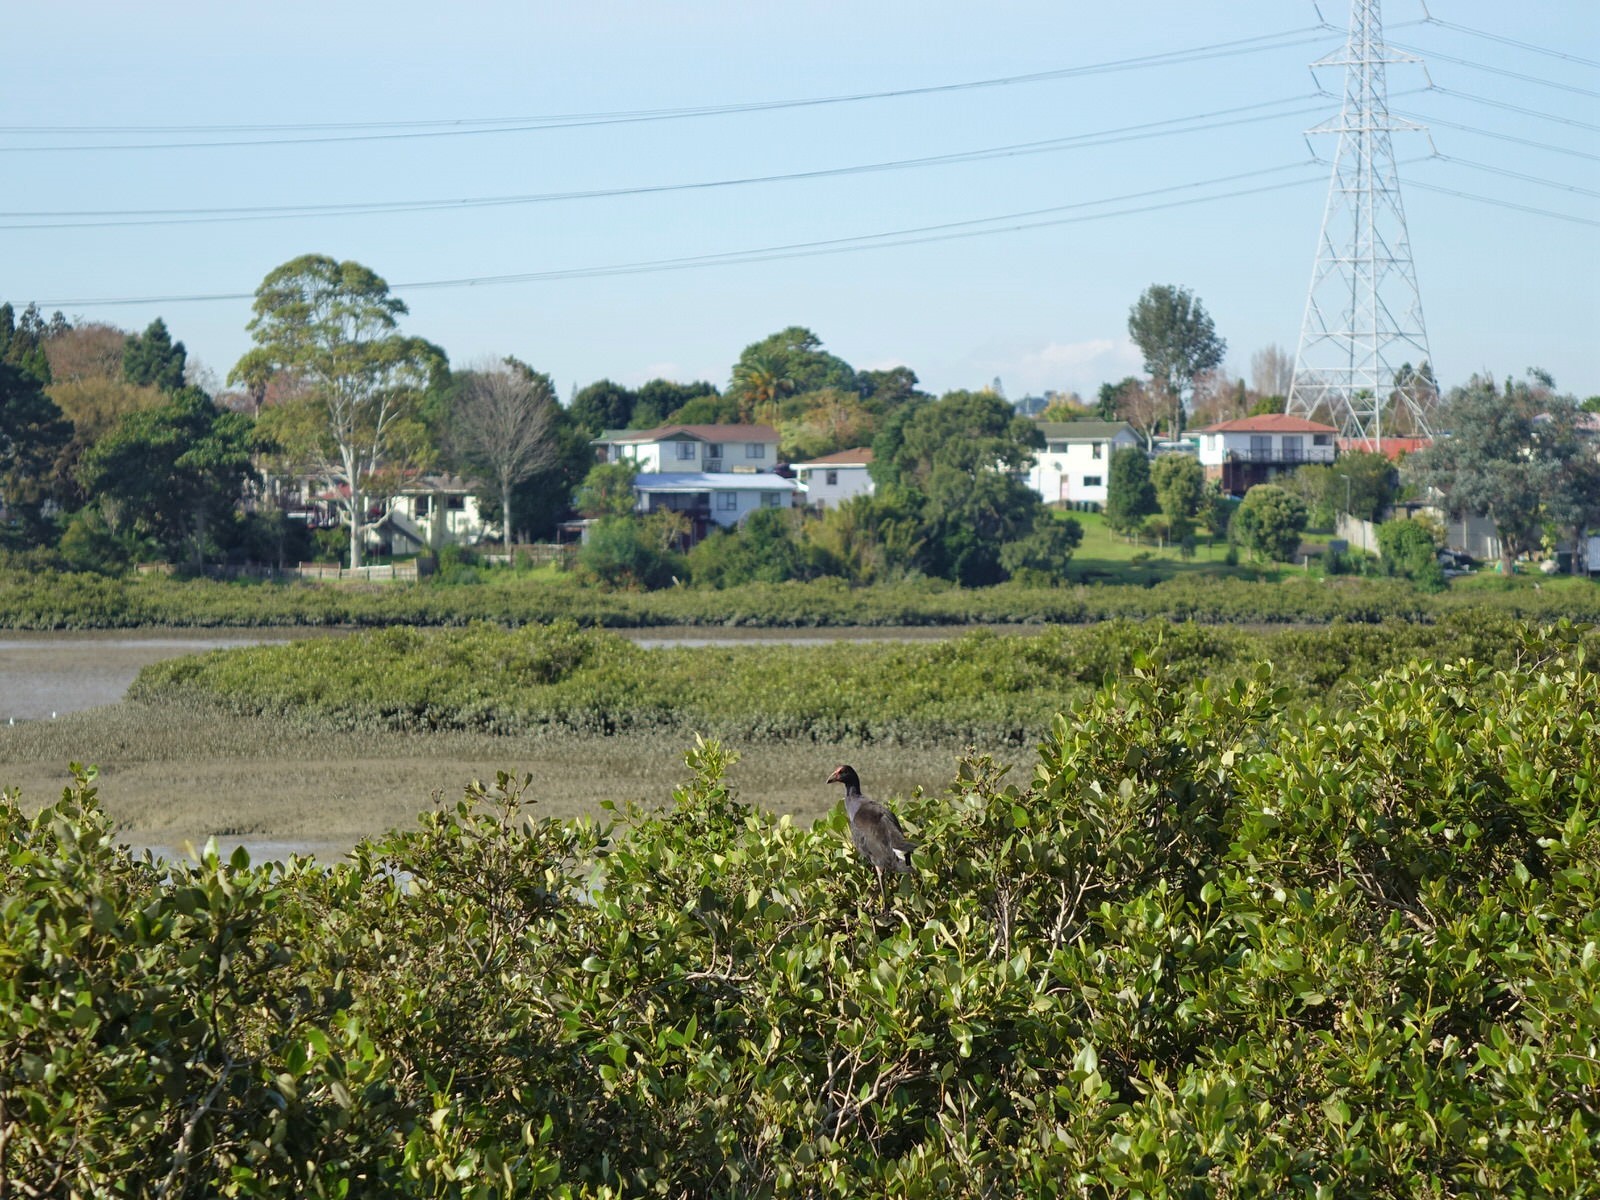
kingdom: Animalia
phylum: Chordata
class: Aves
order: Gruiformes
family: Rallidae
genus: Porphyrio
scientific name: Porphyrio melanotus
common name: Australasian swamphen
